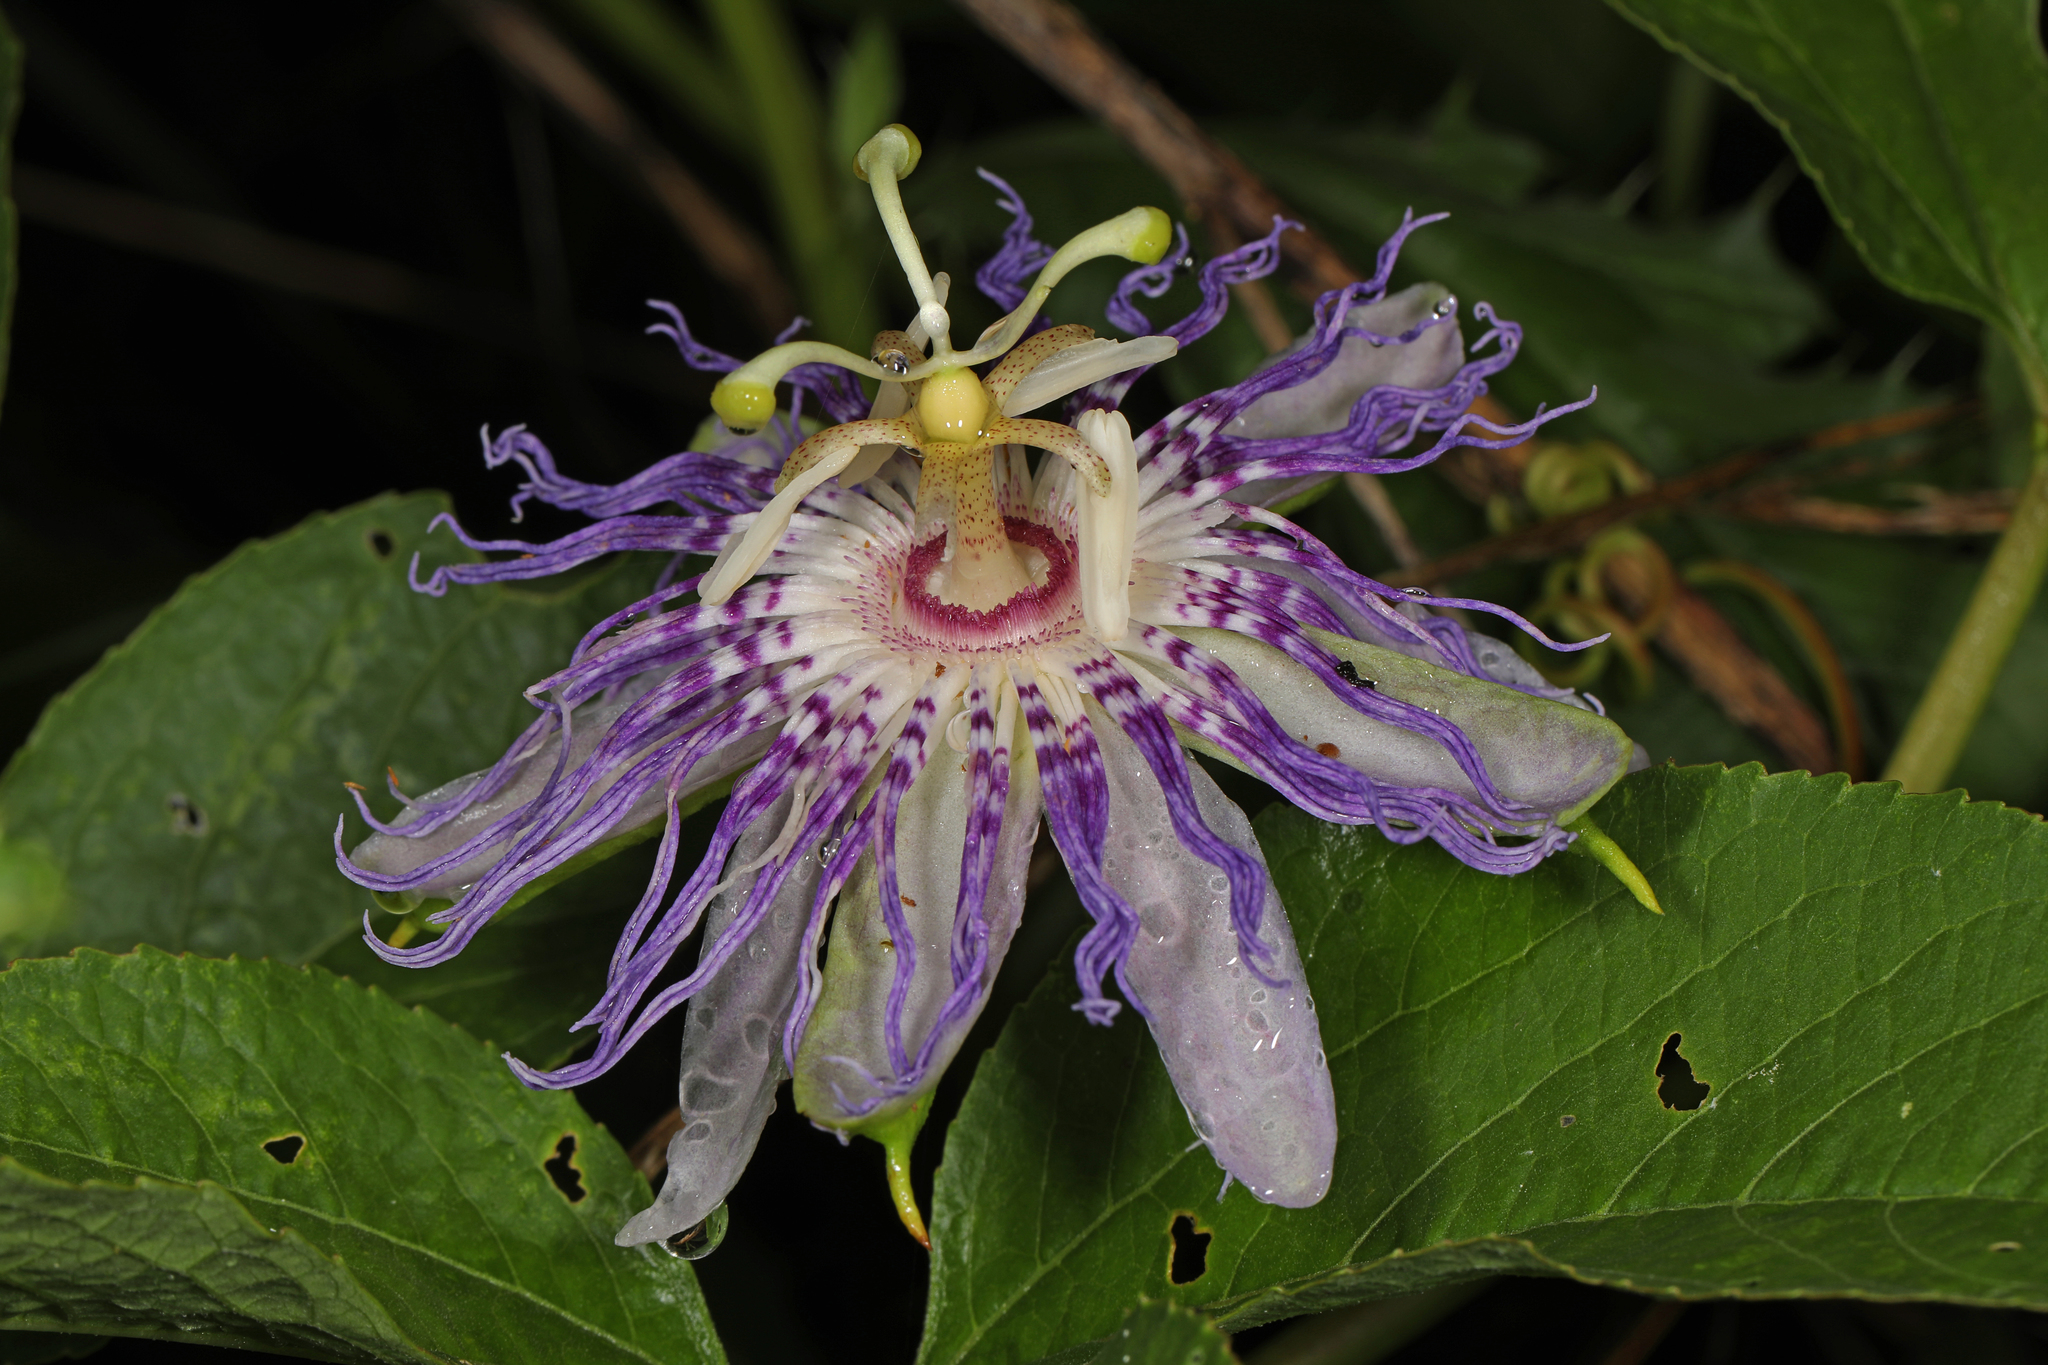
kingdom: Plantae
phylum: Tracheophyta
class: Magnoliopsida
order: Malpighiales
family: Passifloraceae
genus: Passiflora
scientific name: Passiflora incarnata
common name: Apricot-vine
